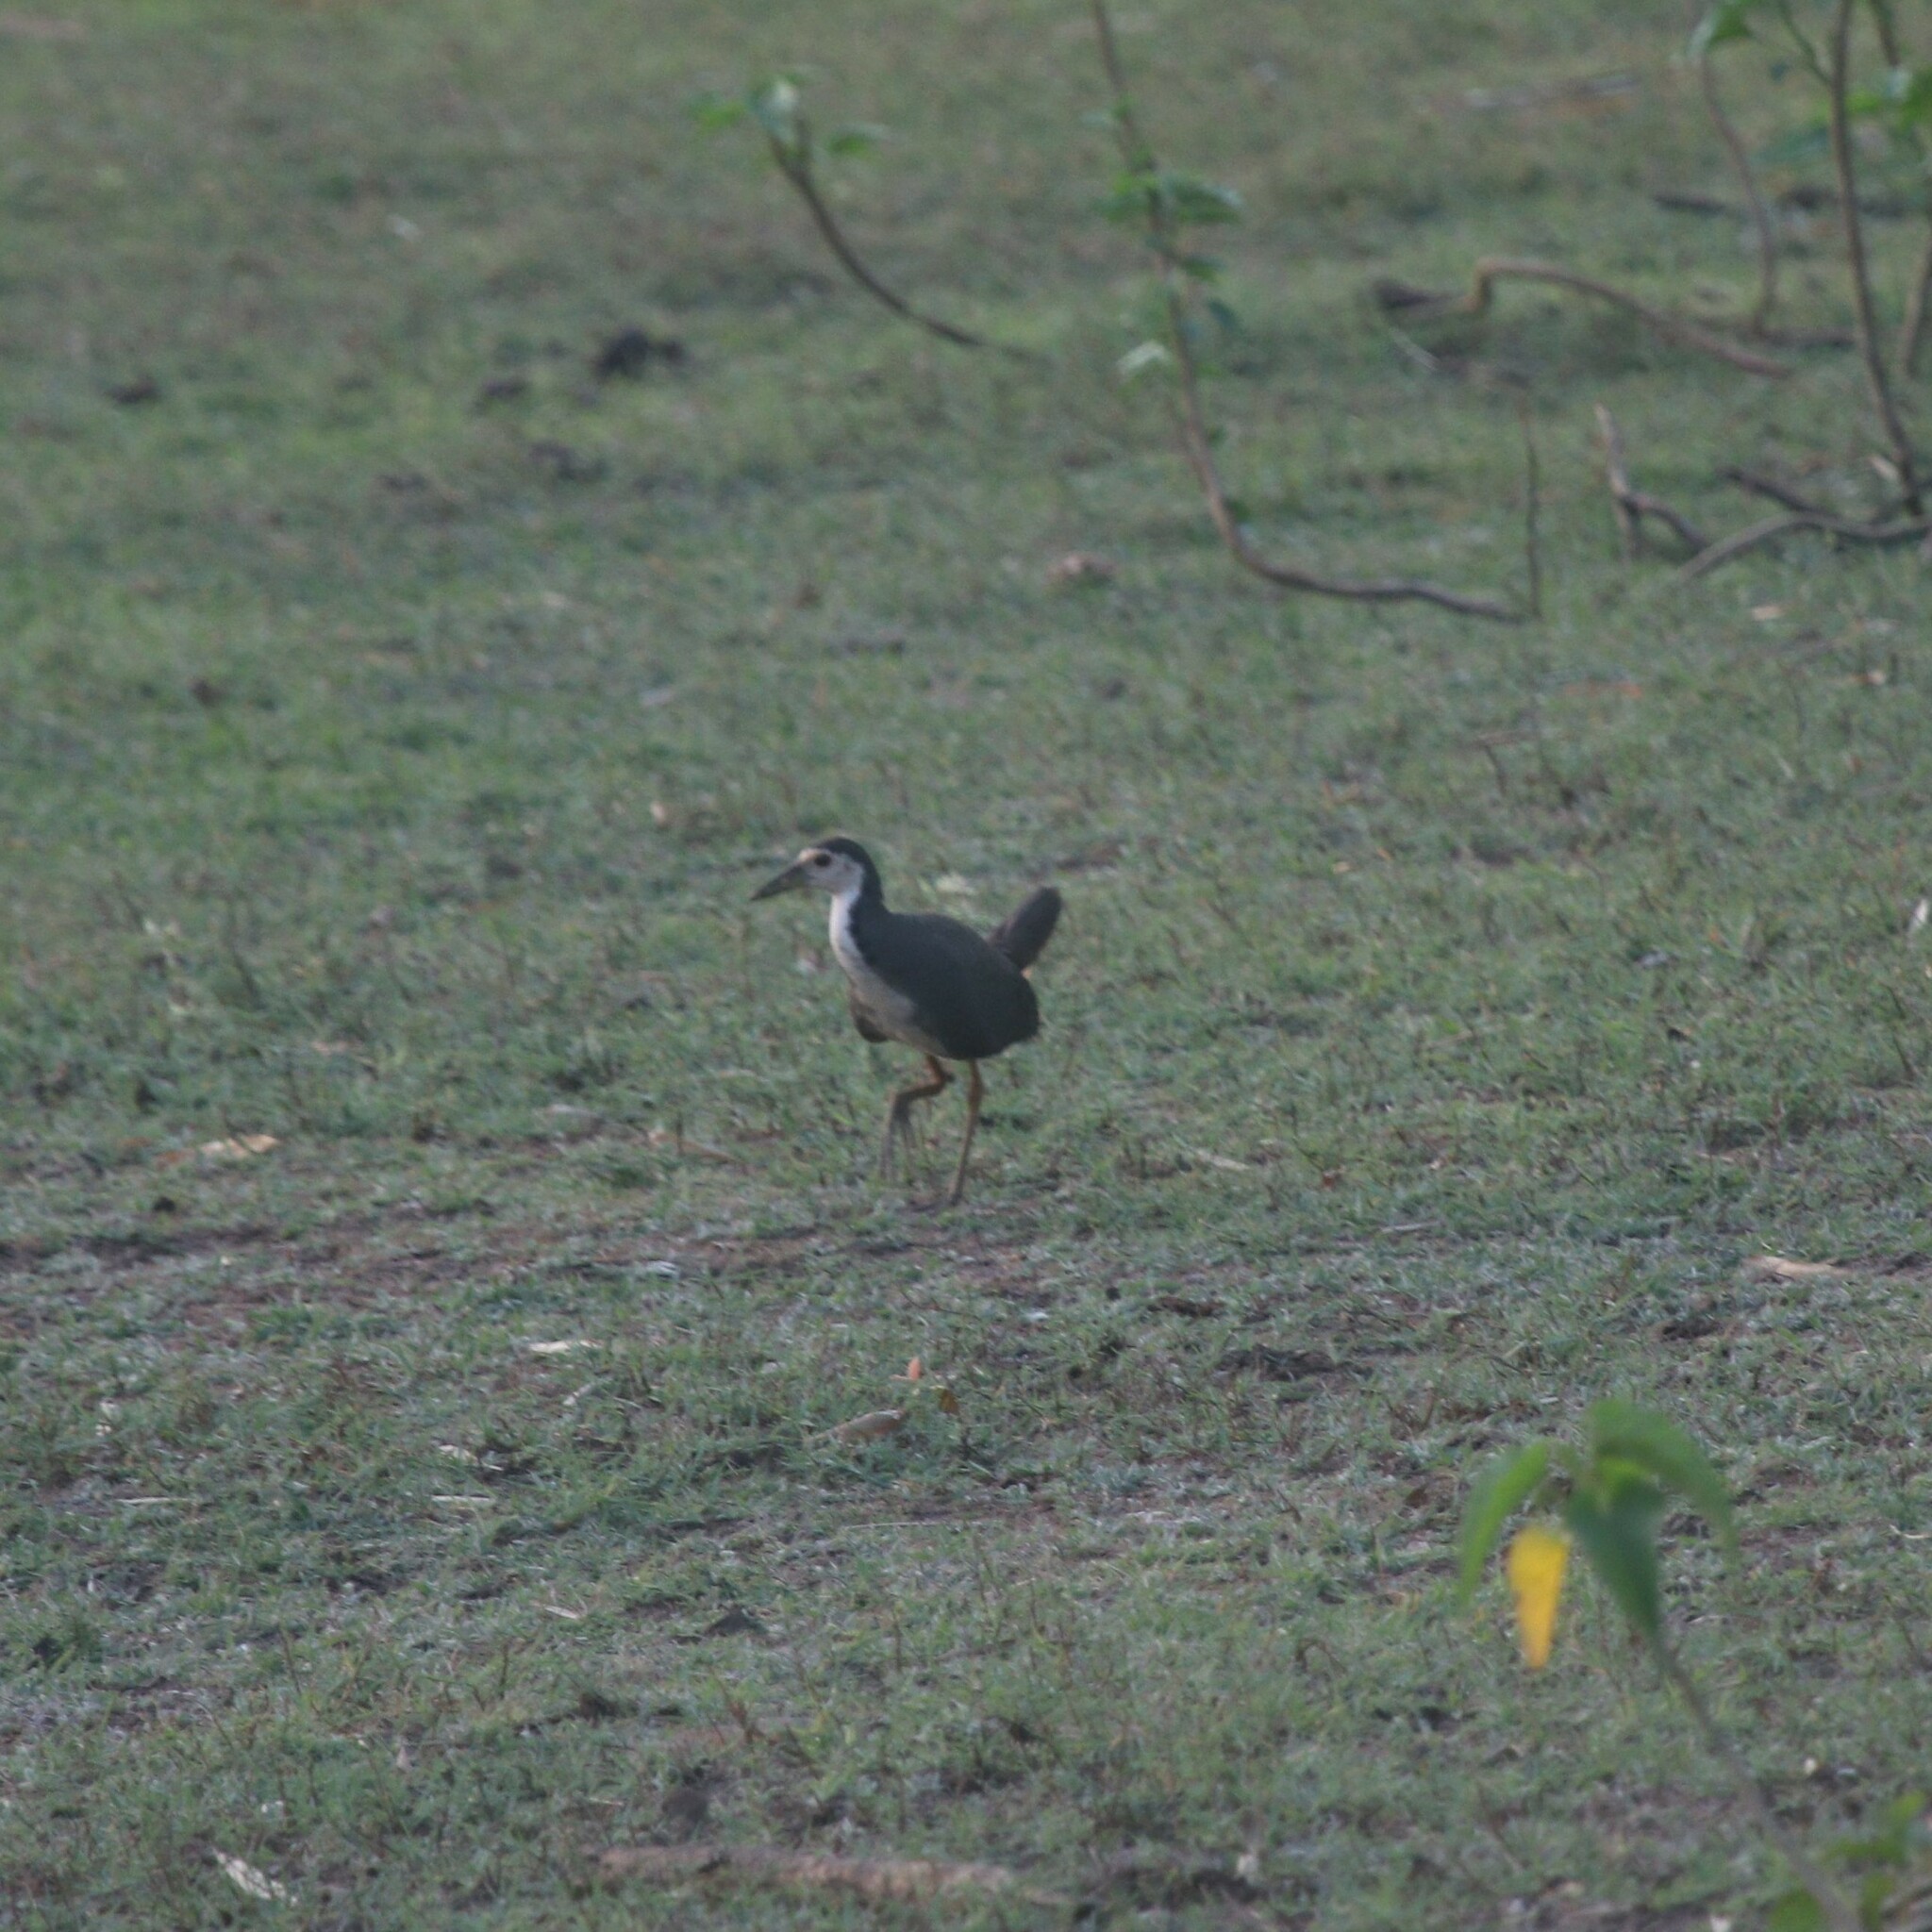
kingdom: Animalia
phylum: Chordata
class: Aves
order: Gruiformes
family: Rallidae
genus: Amaurornis
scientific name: Amaurornis phoenicurus
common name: White-breasted waterhen
